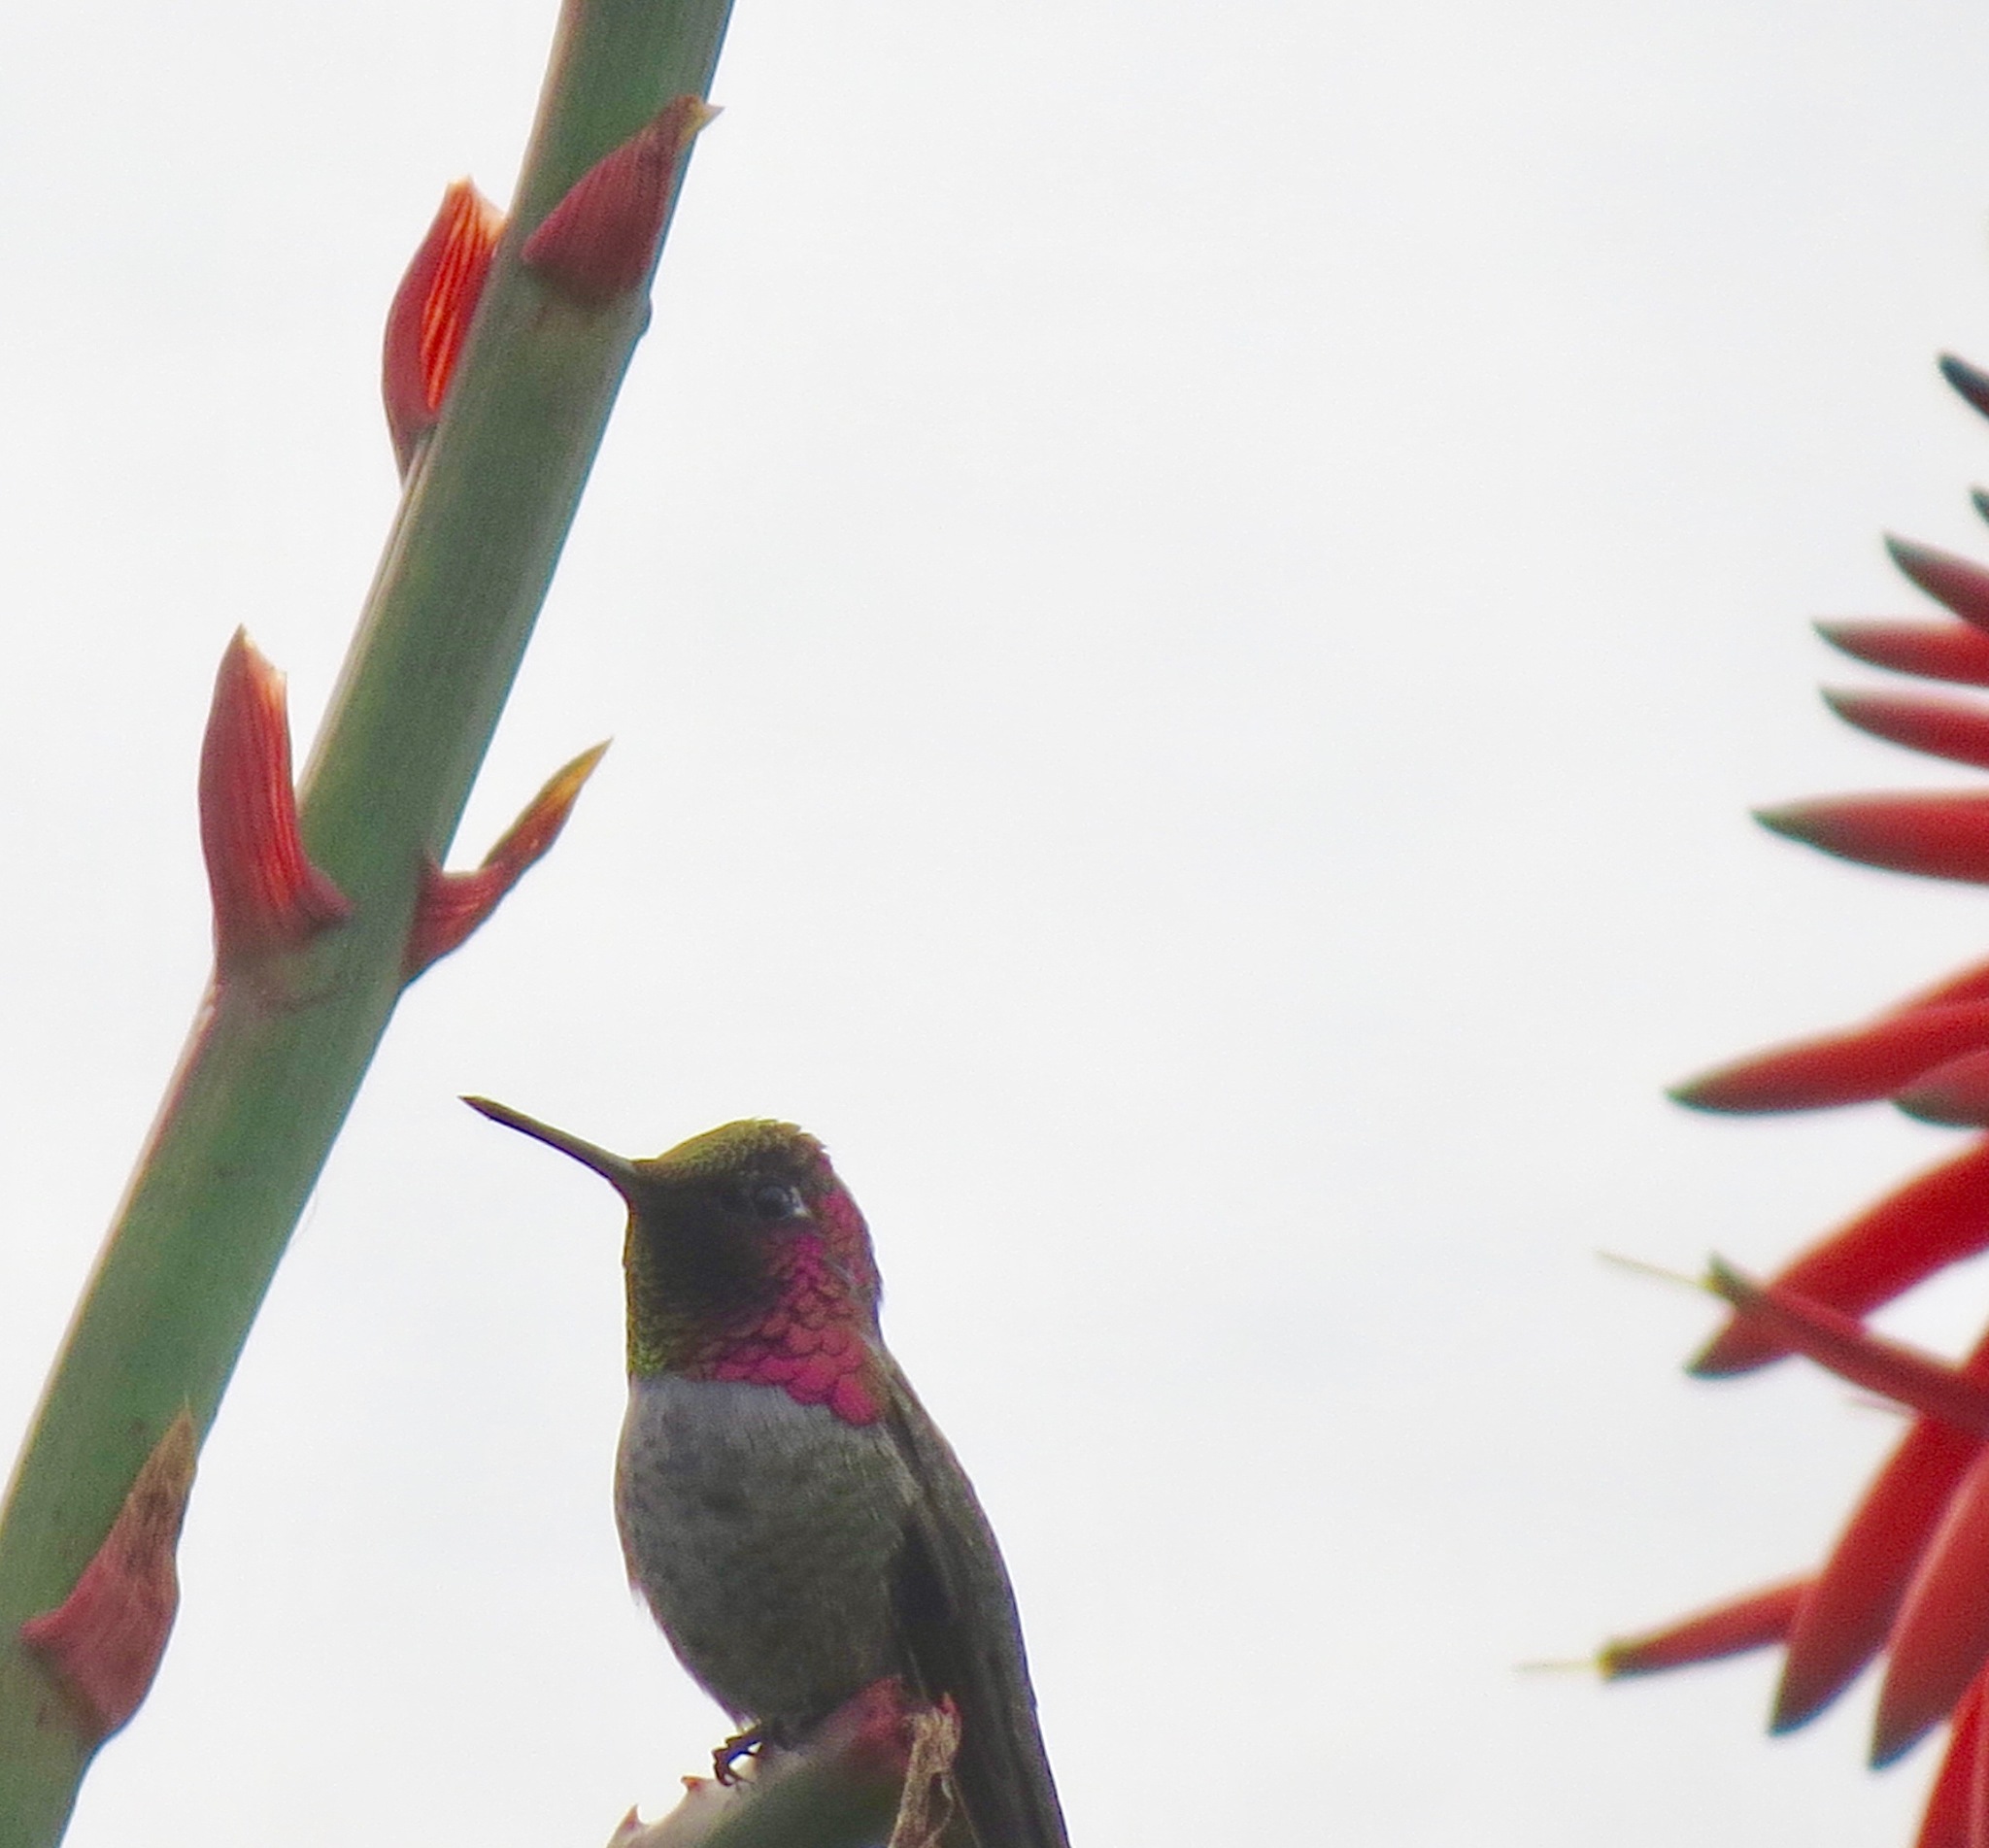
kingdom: Animalia
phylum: Chordata
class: Aves
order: Apodiformes
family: Trochilidae
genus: Calypte
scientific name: Calypte anna
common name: Anna's hummingbird
